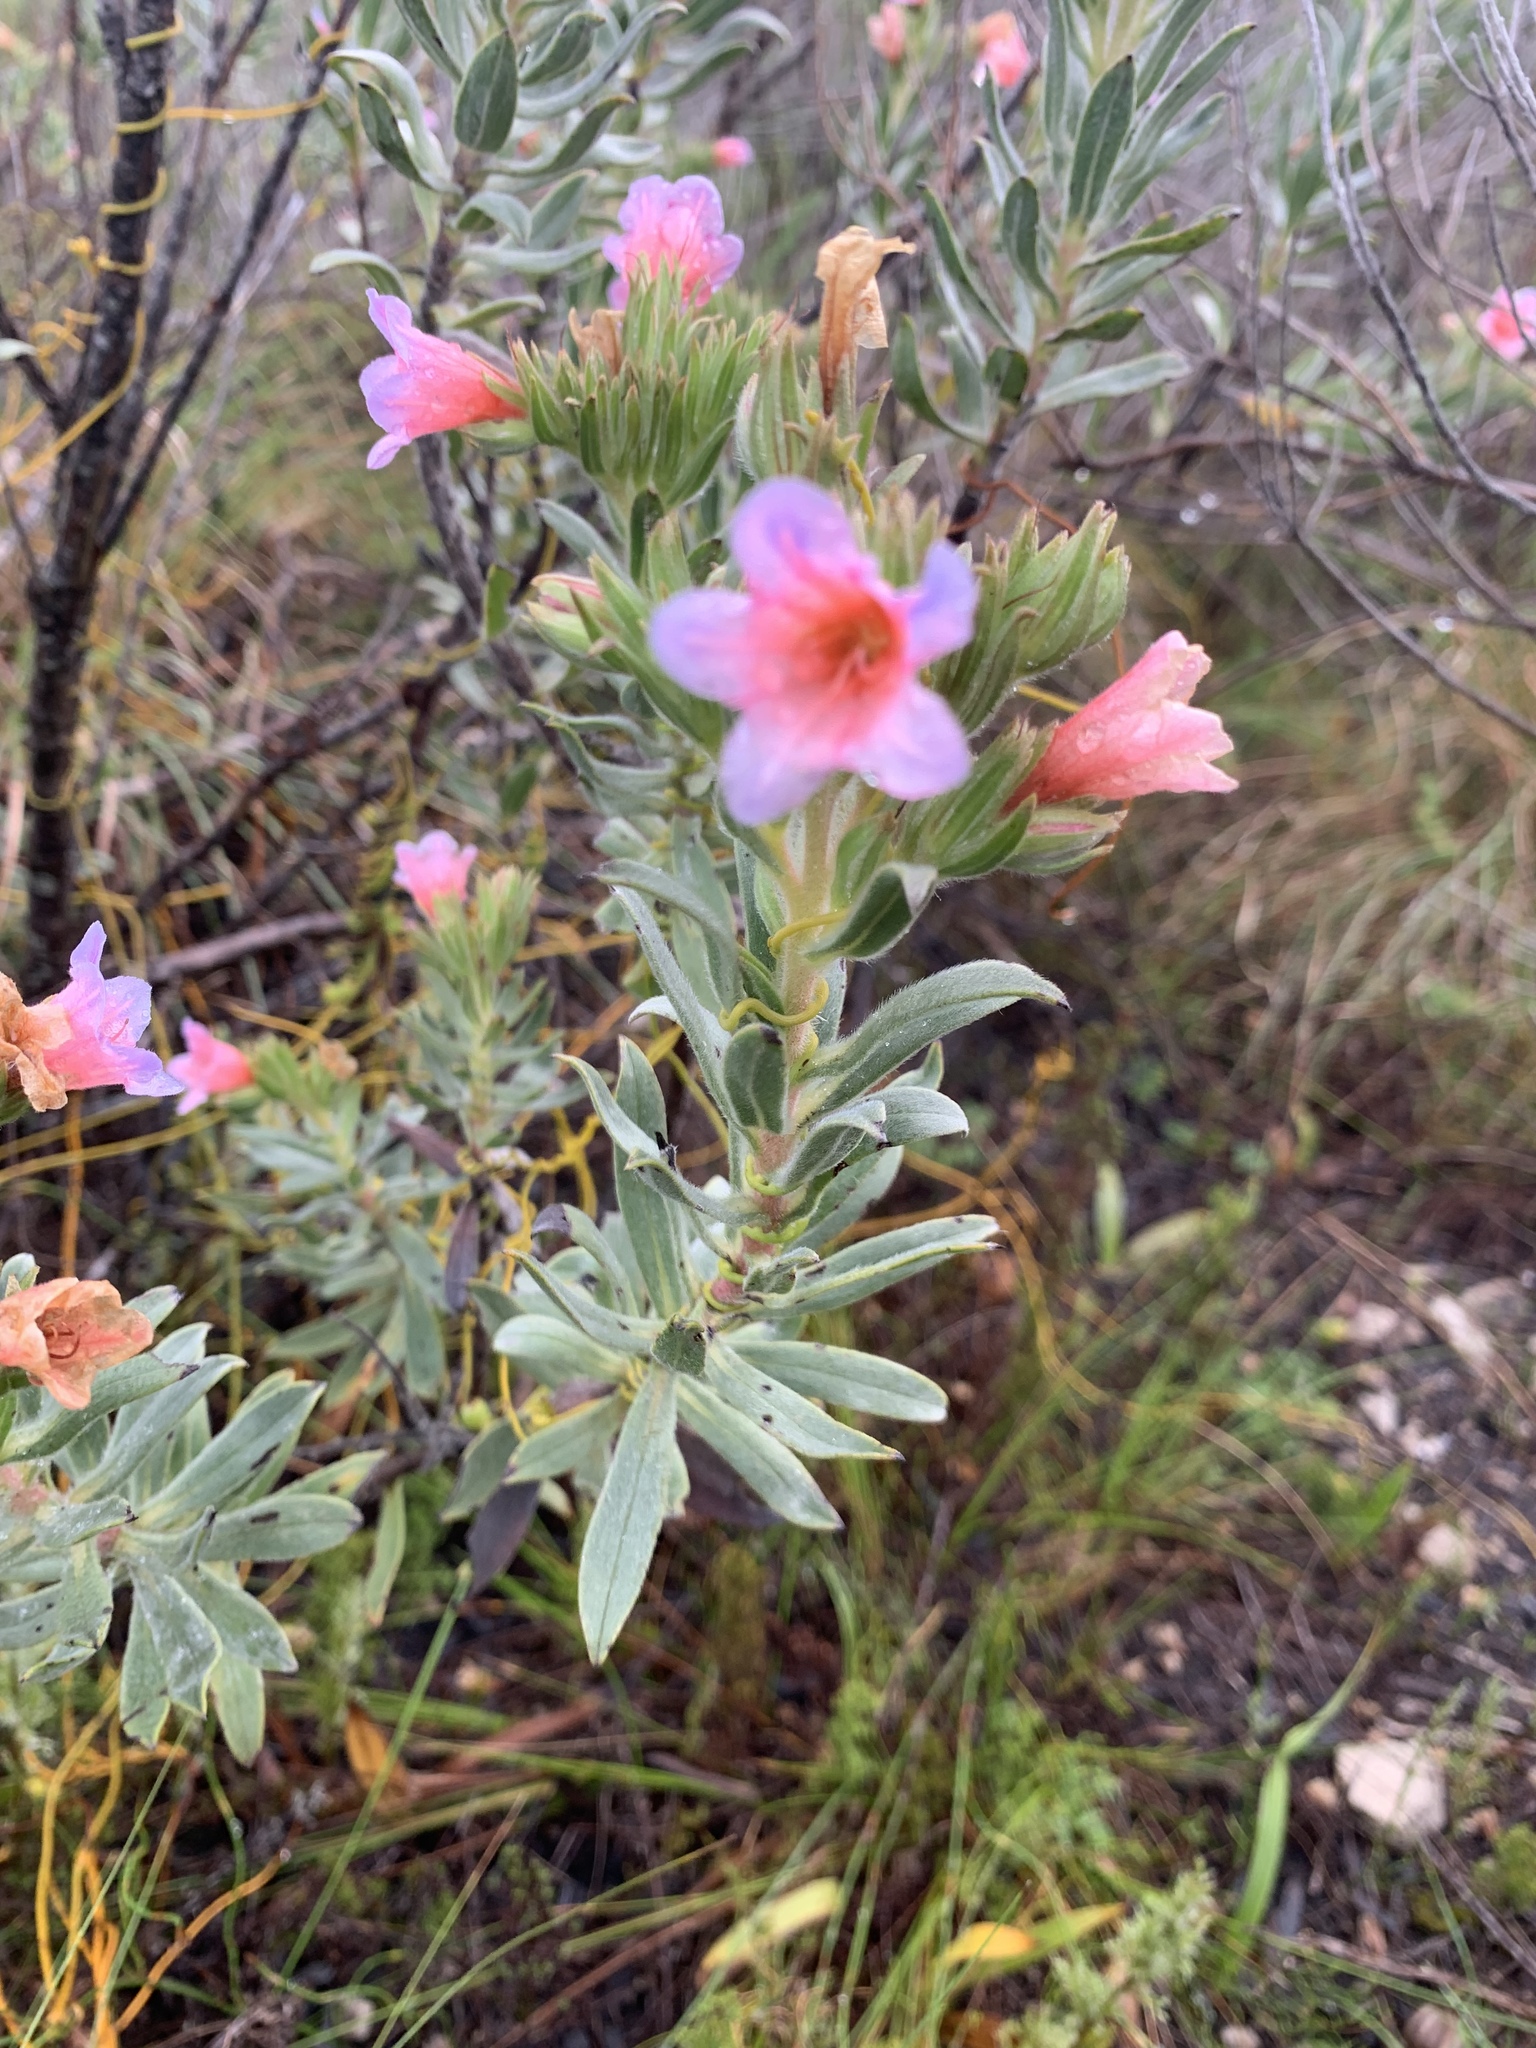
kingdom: Plantae
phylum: Tracheophyta
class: Magnoliopsida
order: Boraginales
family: Boraginaceae
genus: Lobostemon
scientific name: Lobostemon curvifolius
